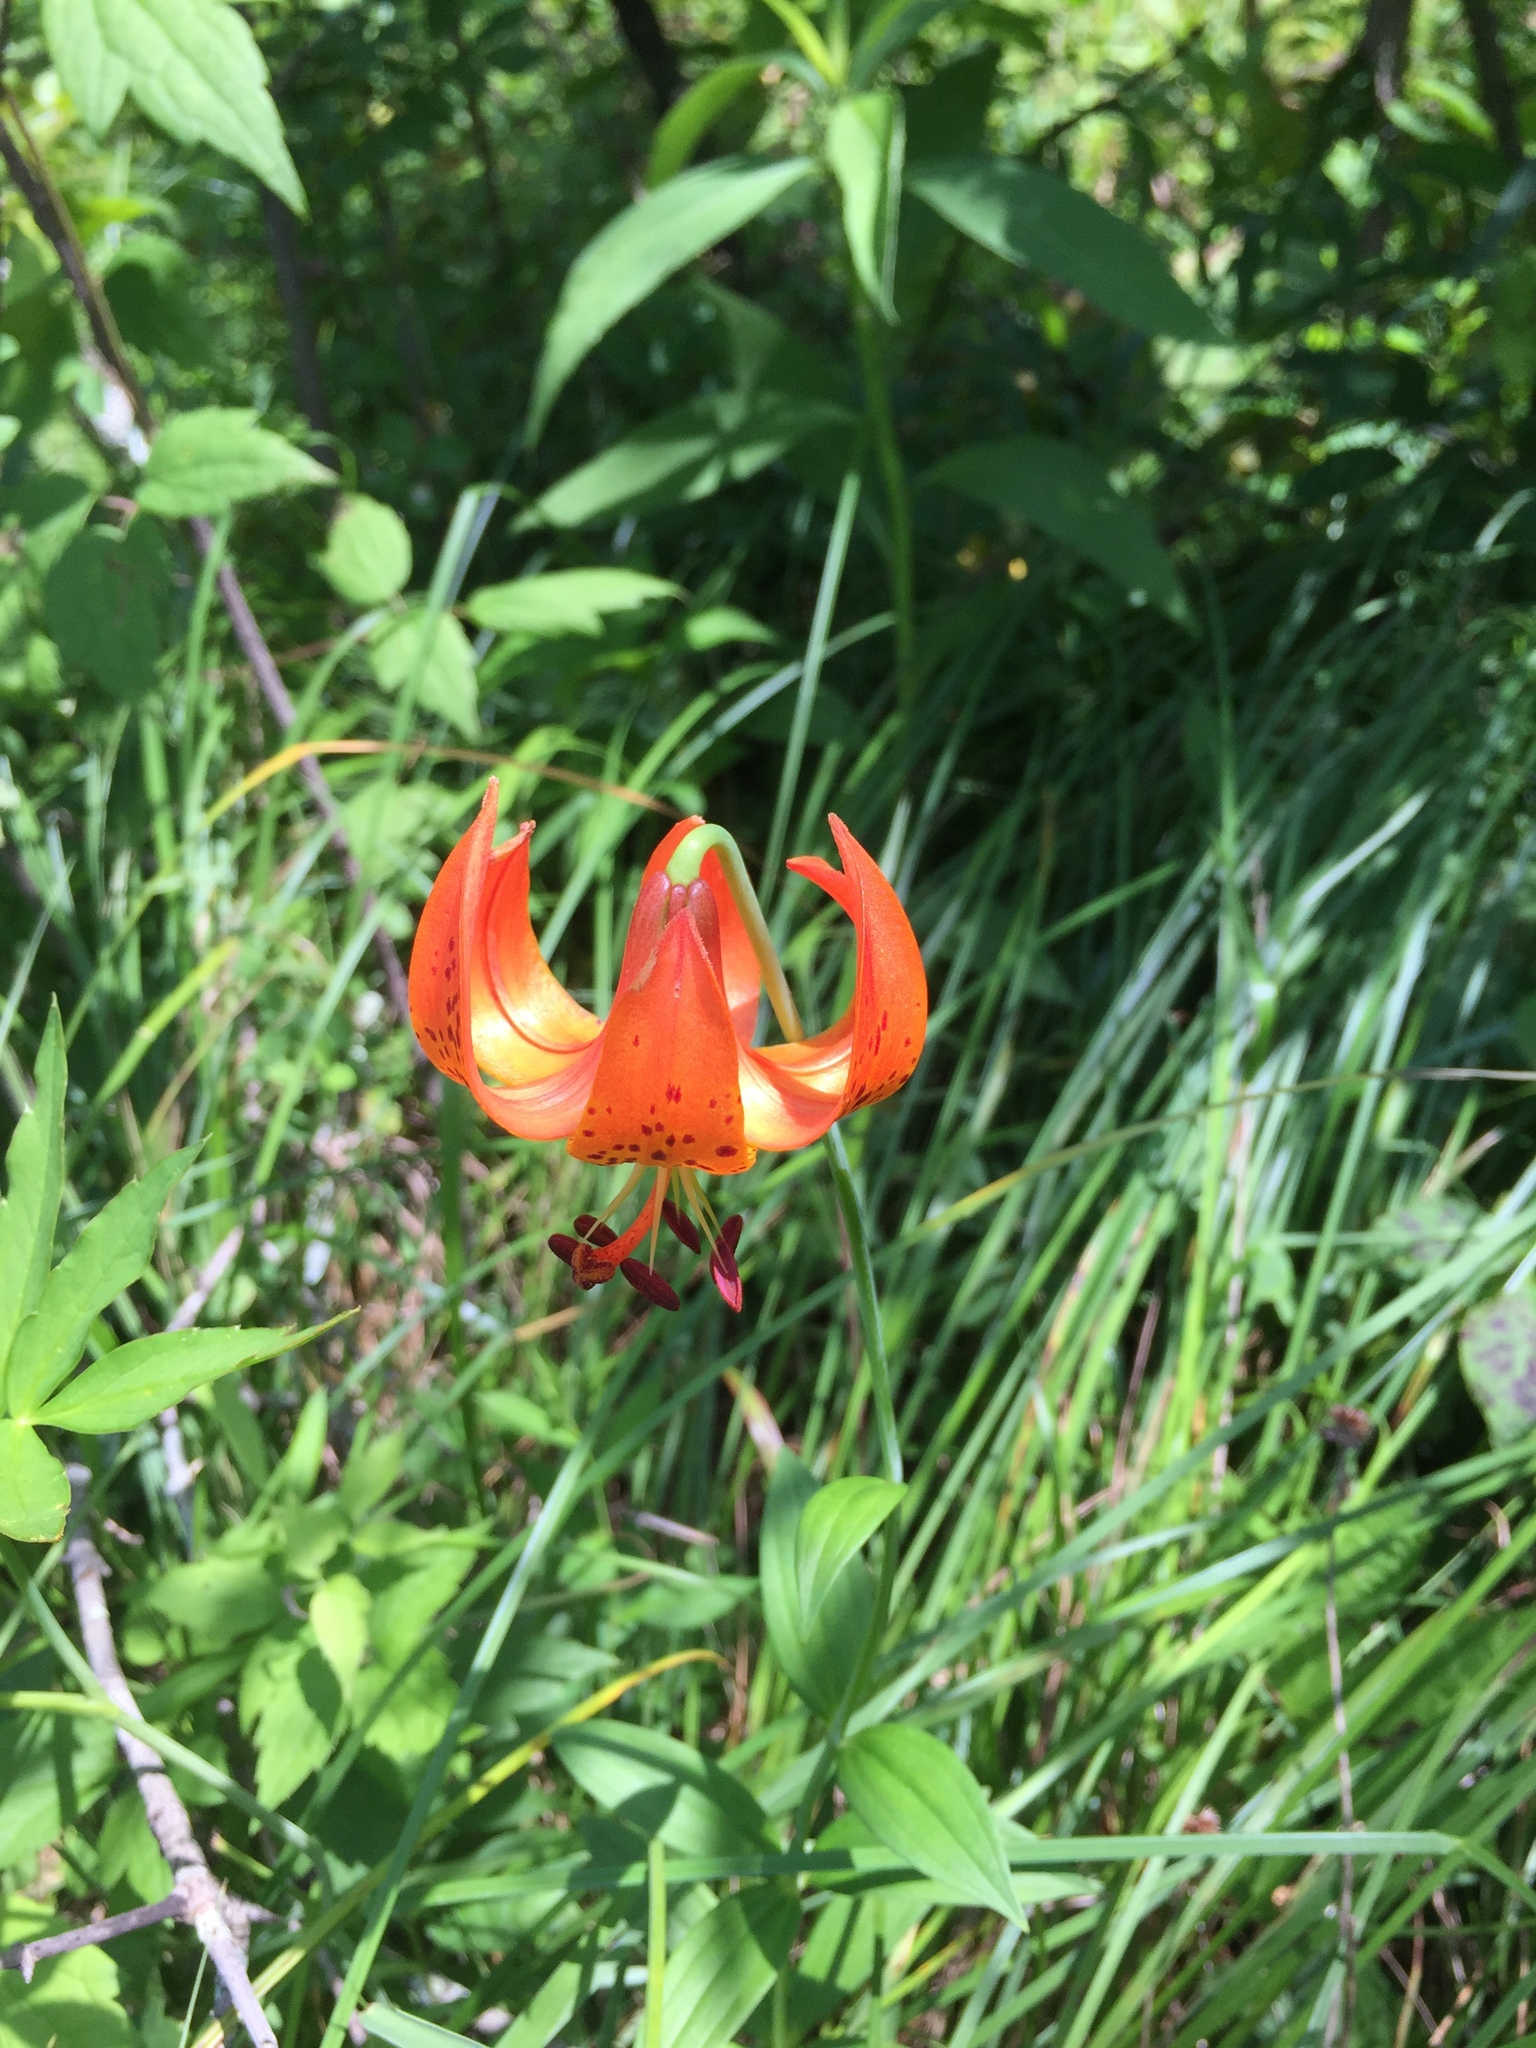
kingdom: Plantae
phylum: Tracheophyta
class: Liliopsida
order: Liliales
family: Liliaceae
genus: Lilium
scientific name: Lilium michiganense
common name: Michigan lily
